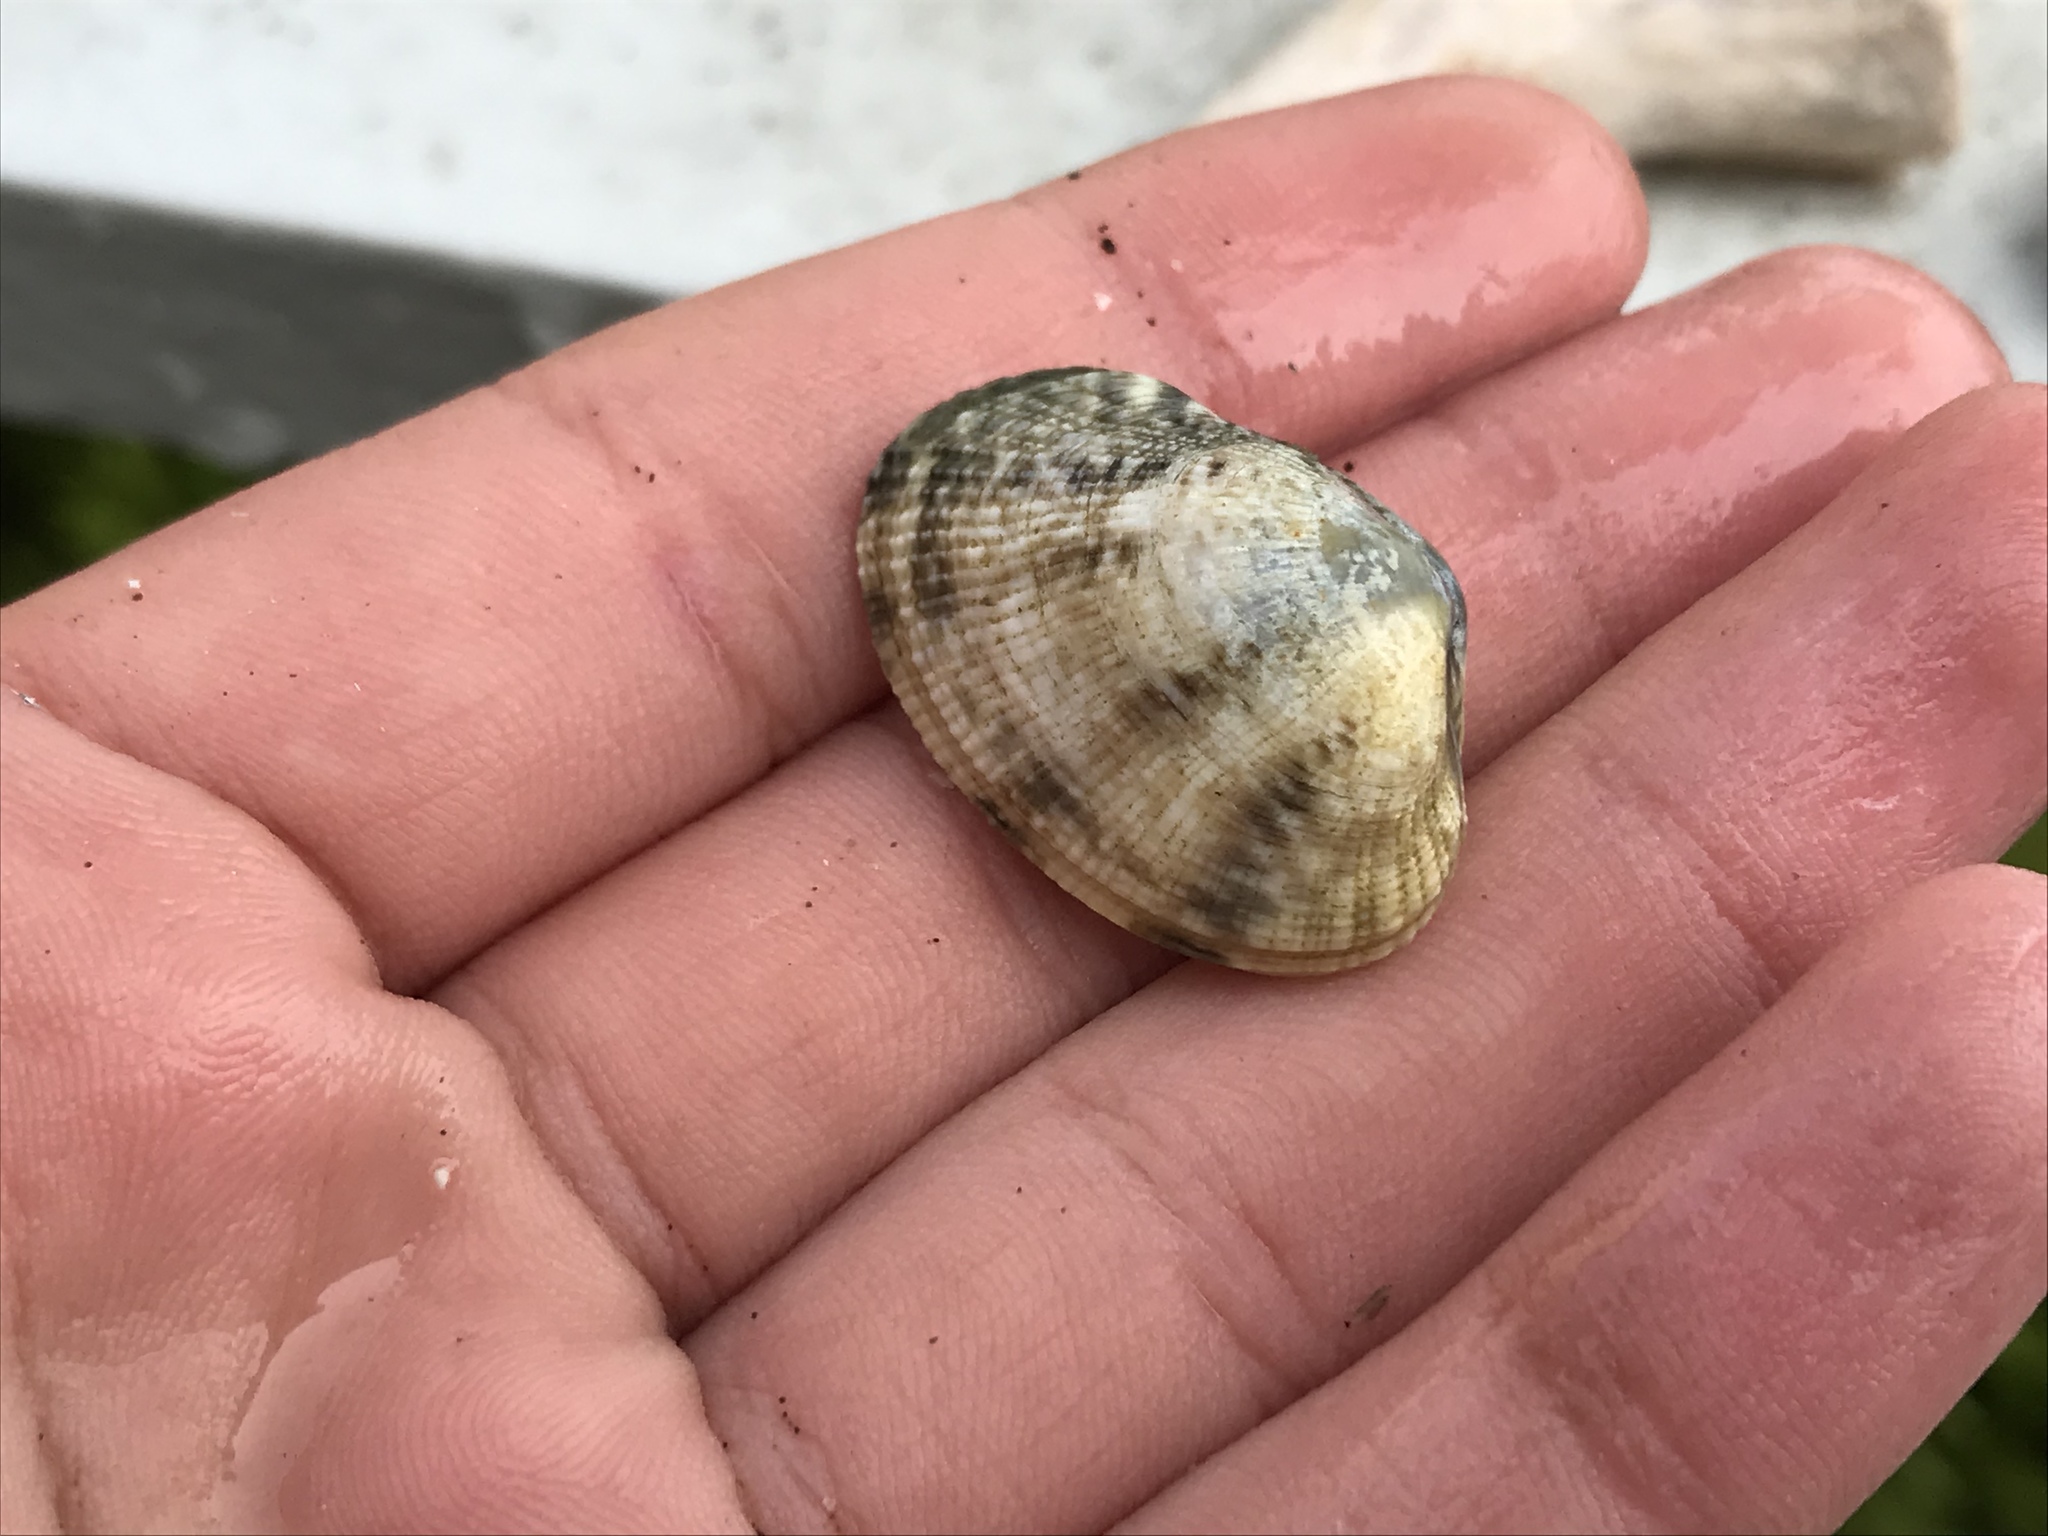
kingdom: Animalia
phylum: Mollusca
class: Bivalvia
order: Venerida
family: Veneridae
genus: Ruditapes
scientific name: Ruditapes philippinarum
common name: Manila clam
